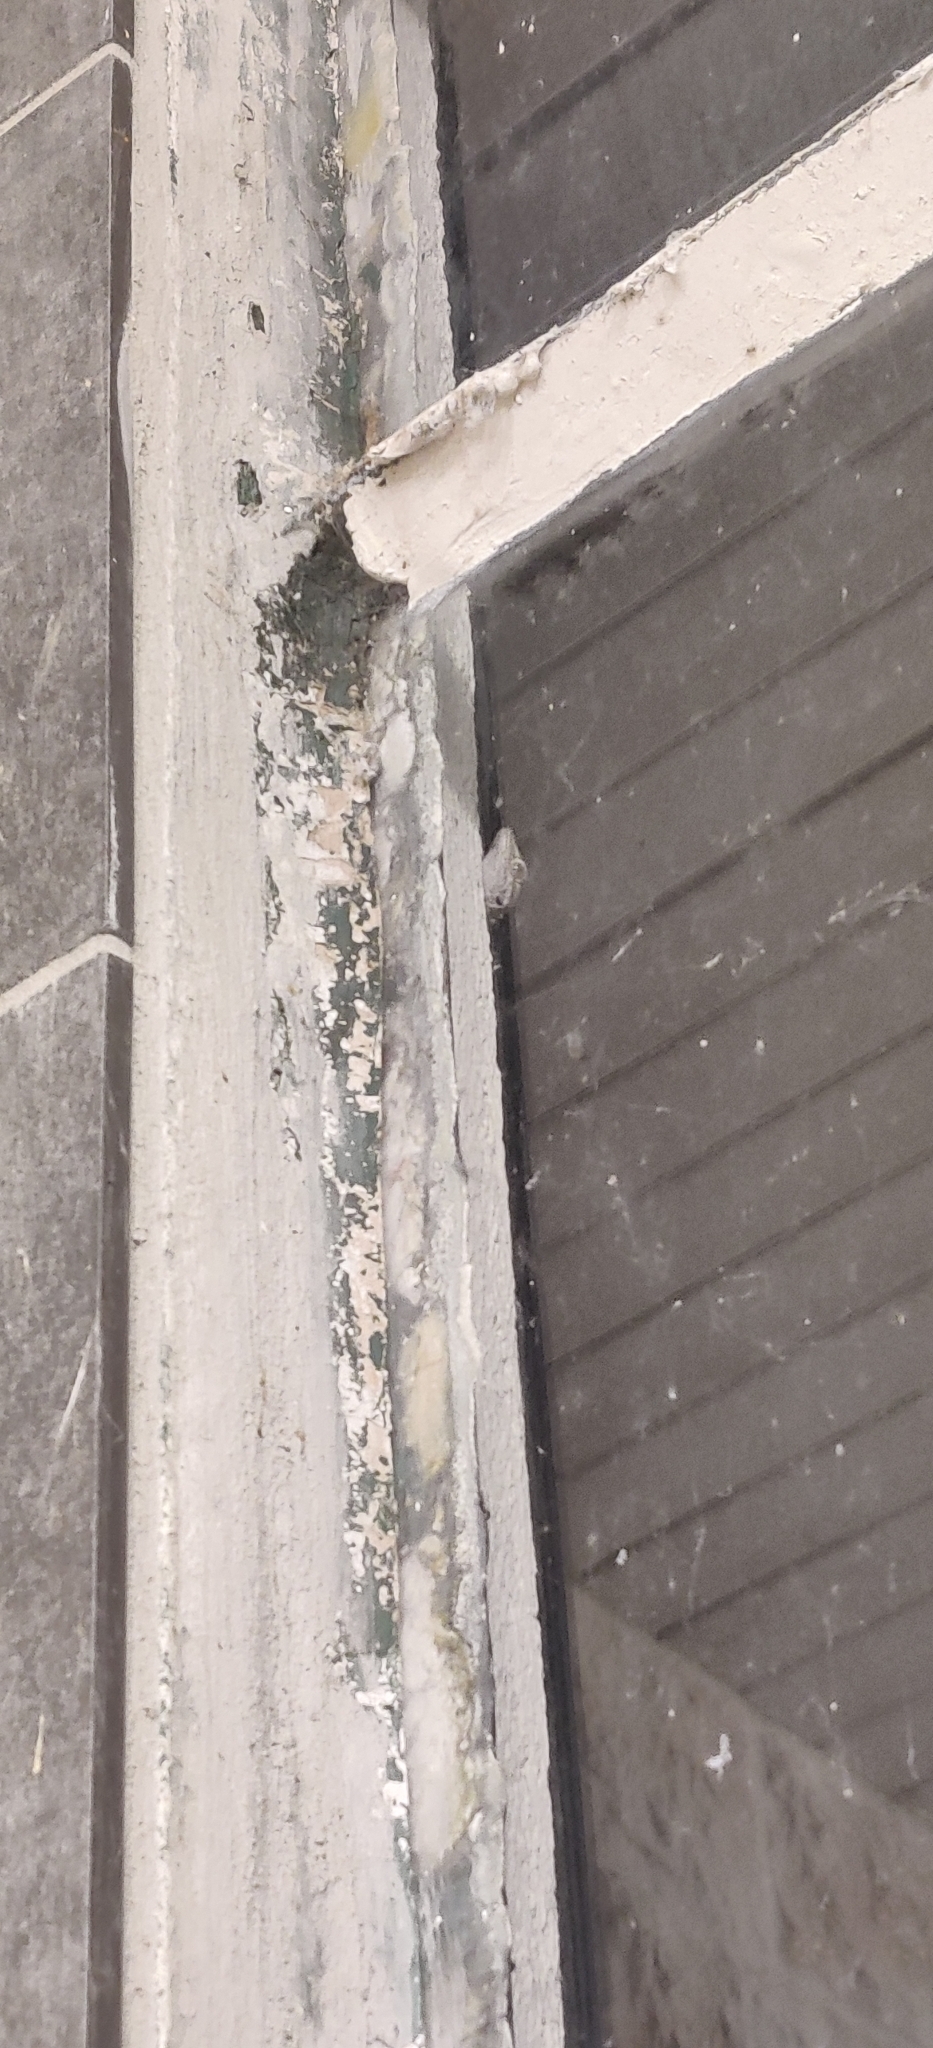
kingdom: Animalia
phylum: Chordata
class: Squamata
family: Phyllodactylidae
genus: Tarentola
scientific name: Tarentola mauritanica
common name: Moorish gecko
